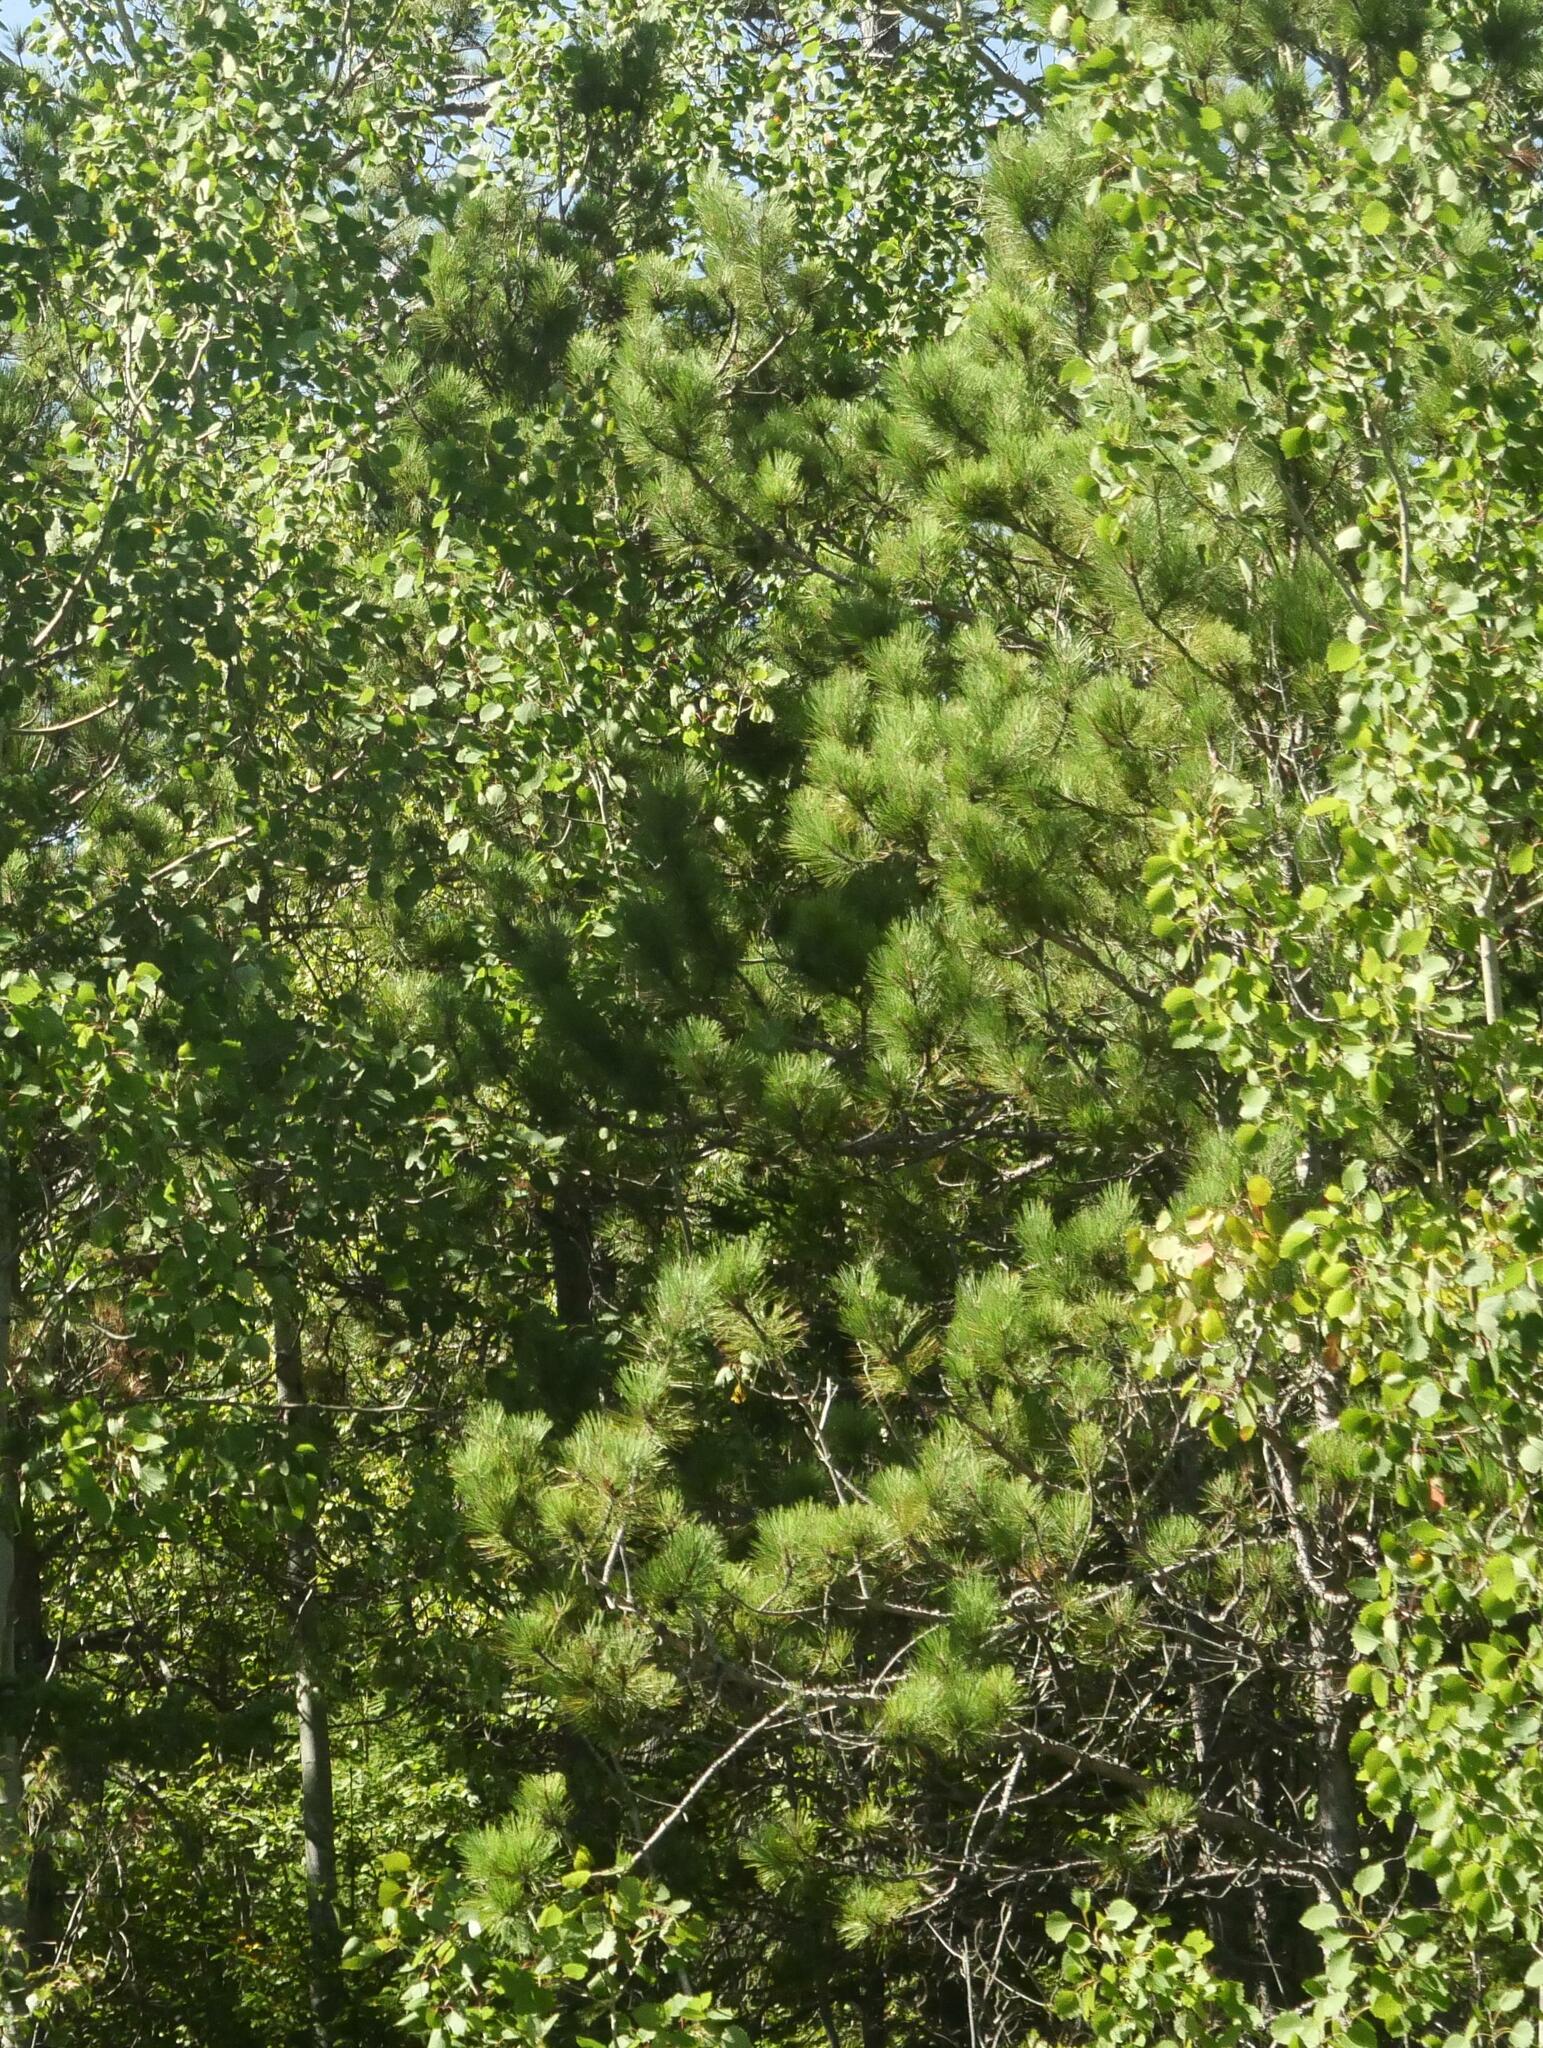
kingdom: Plantae
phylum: Tracheophyta
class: Pinopsida
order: Pinales
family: Pinaceae
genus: Pinus
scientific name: Pinus strobus
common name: Weymouth pine
